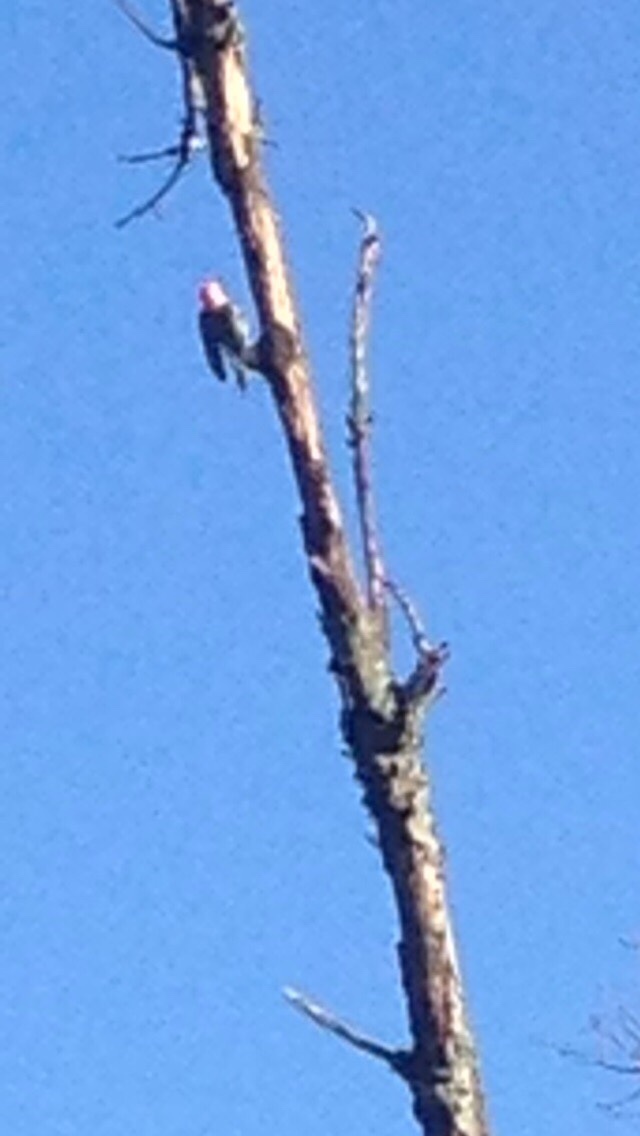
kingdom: Animalia
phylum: Chordata
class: Aves
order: Piciformes
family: Picidae
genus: Melanerpes
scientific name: Melanerpes carolinus
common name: Red-bellied woodpecker
